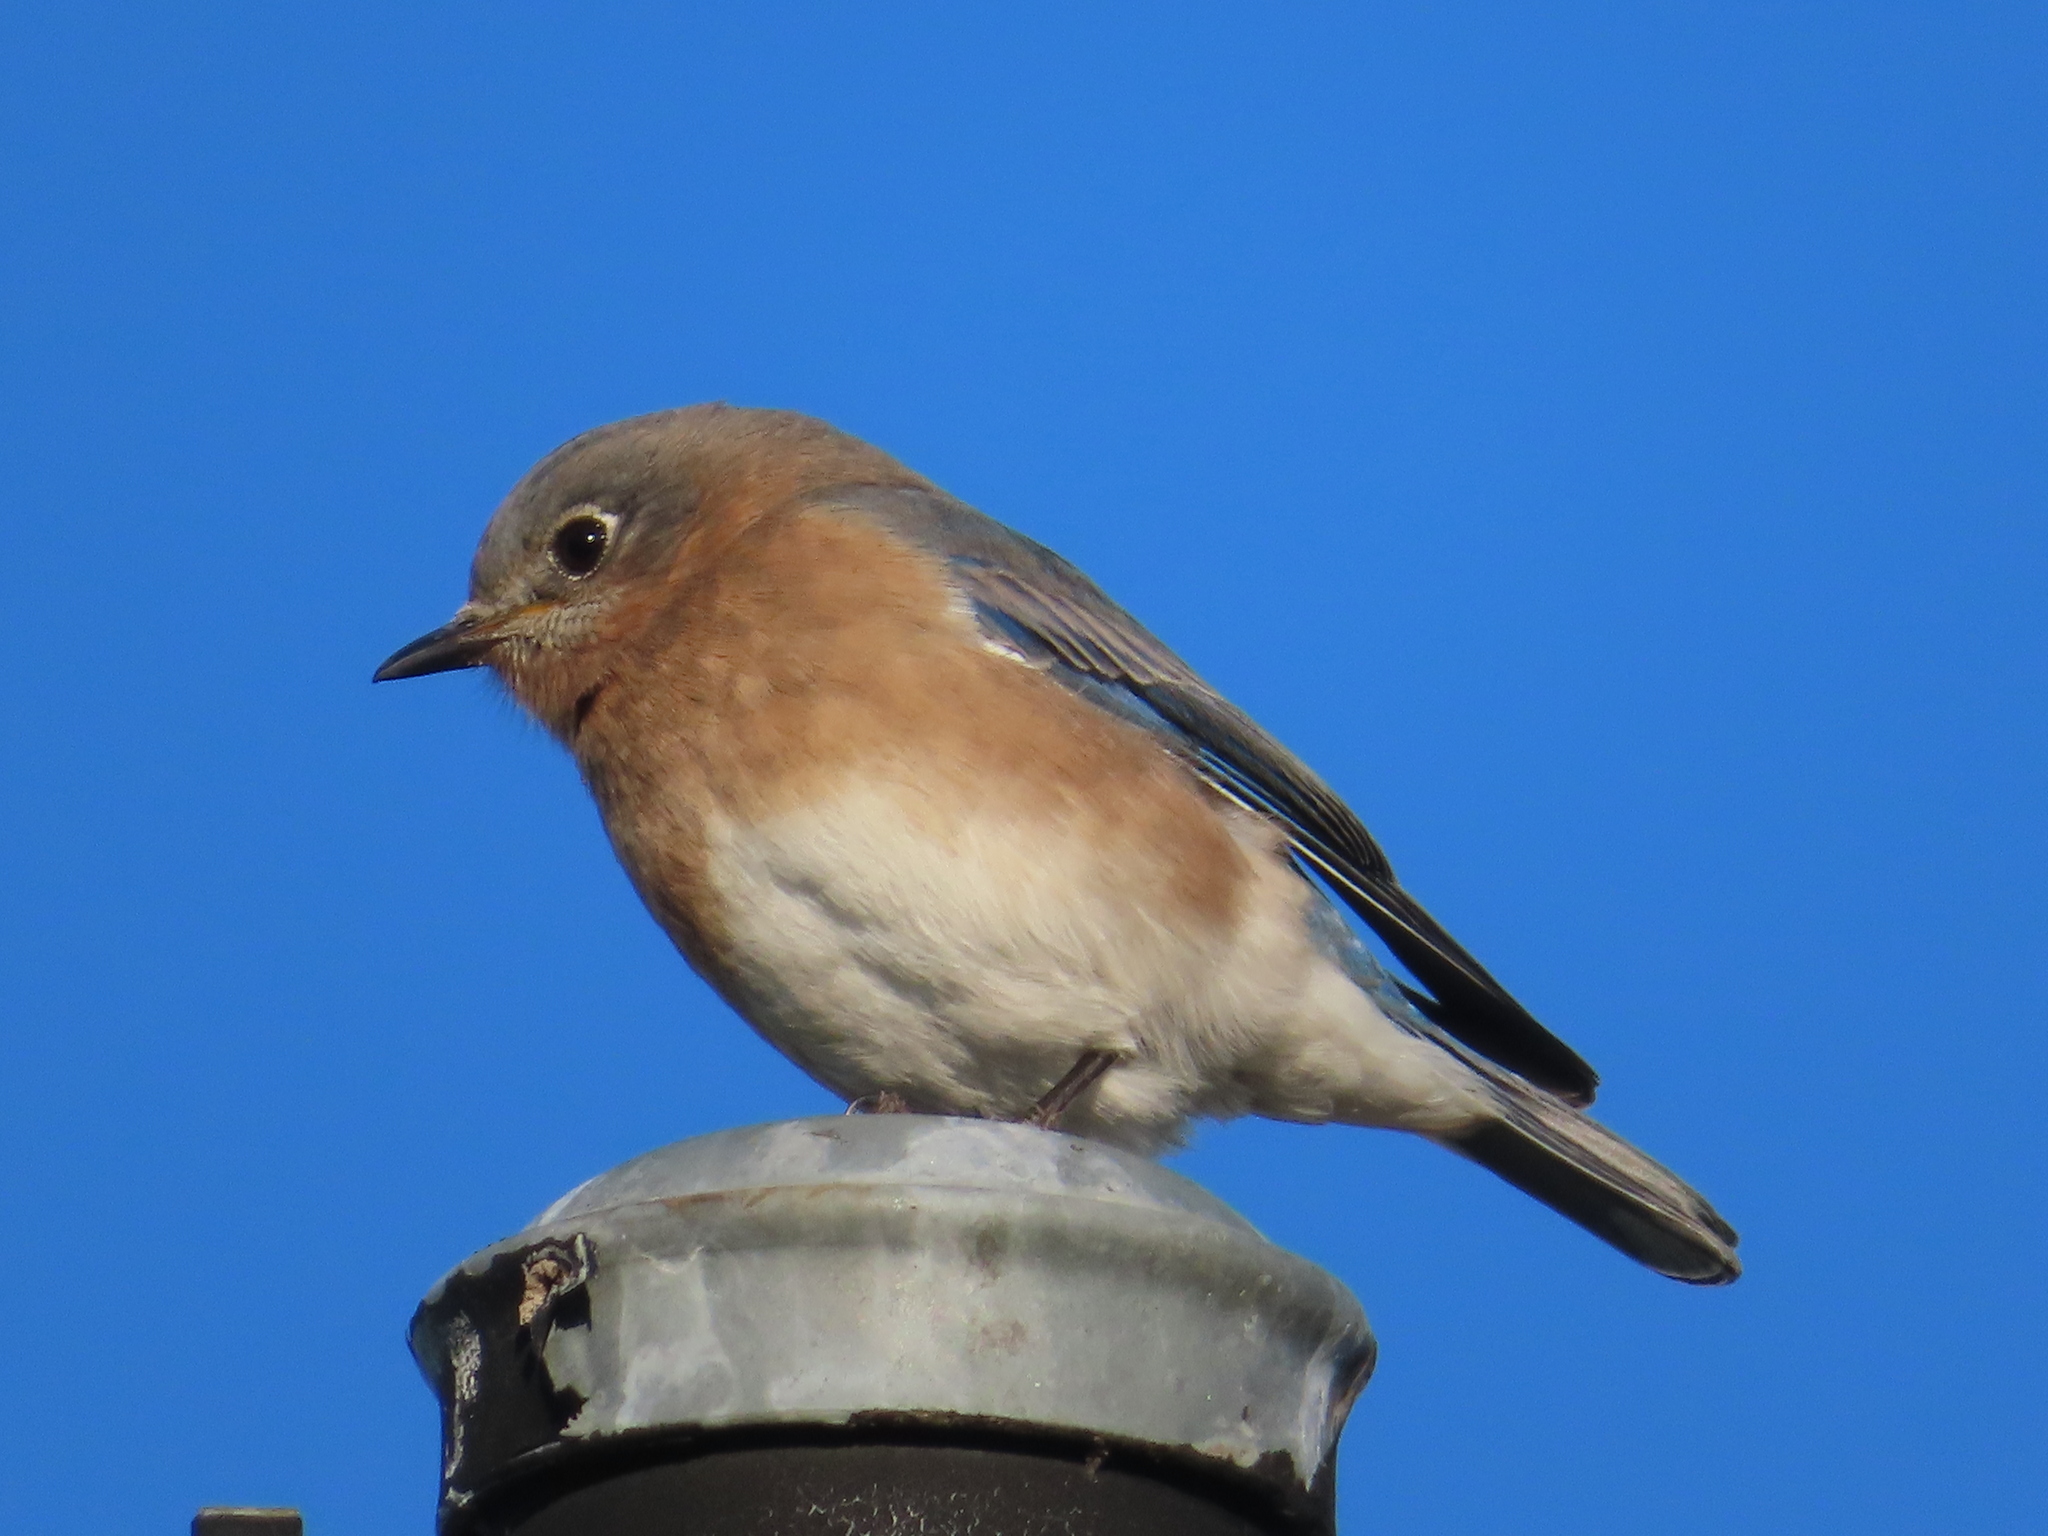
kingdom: Animalia
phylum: Chordata
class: Aves
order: Passeriformes
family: Turdidae
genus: Sialia
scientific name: Sialia sialis
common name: Eastern bluebird
